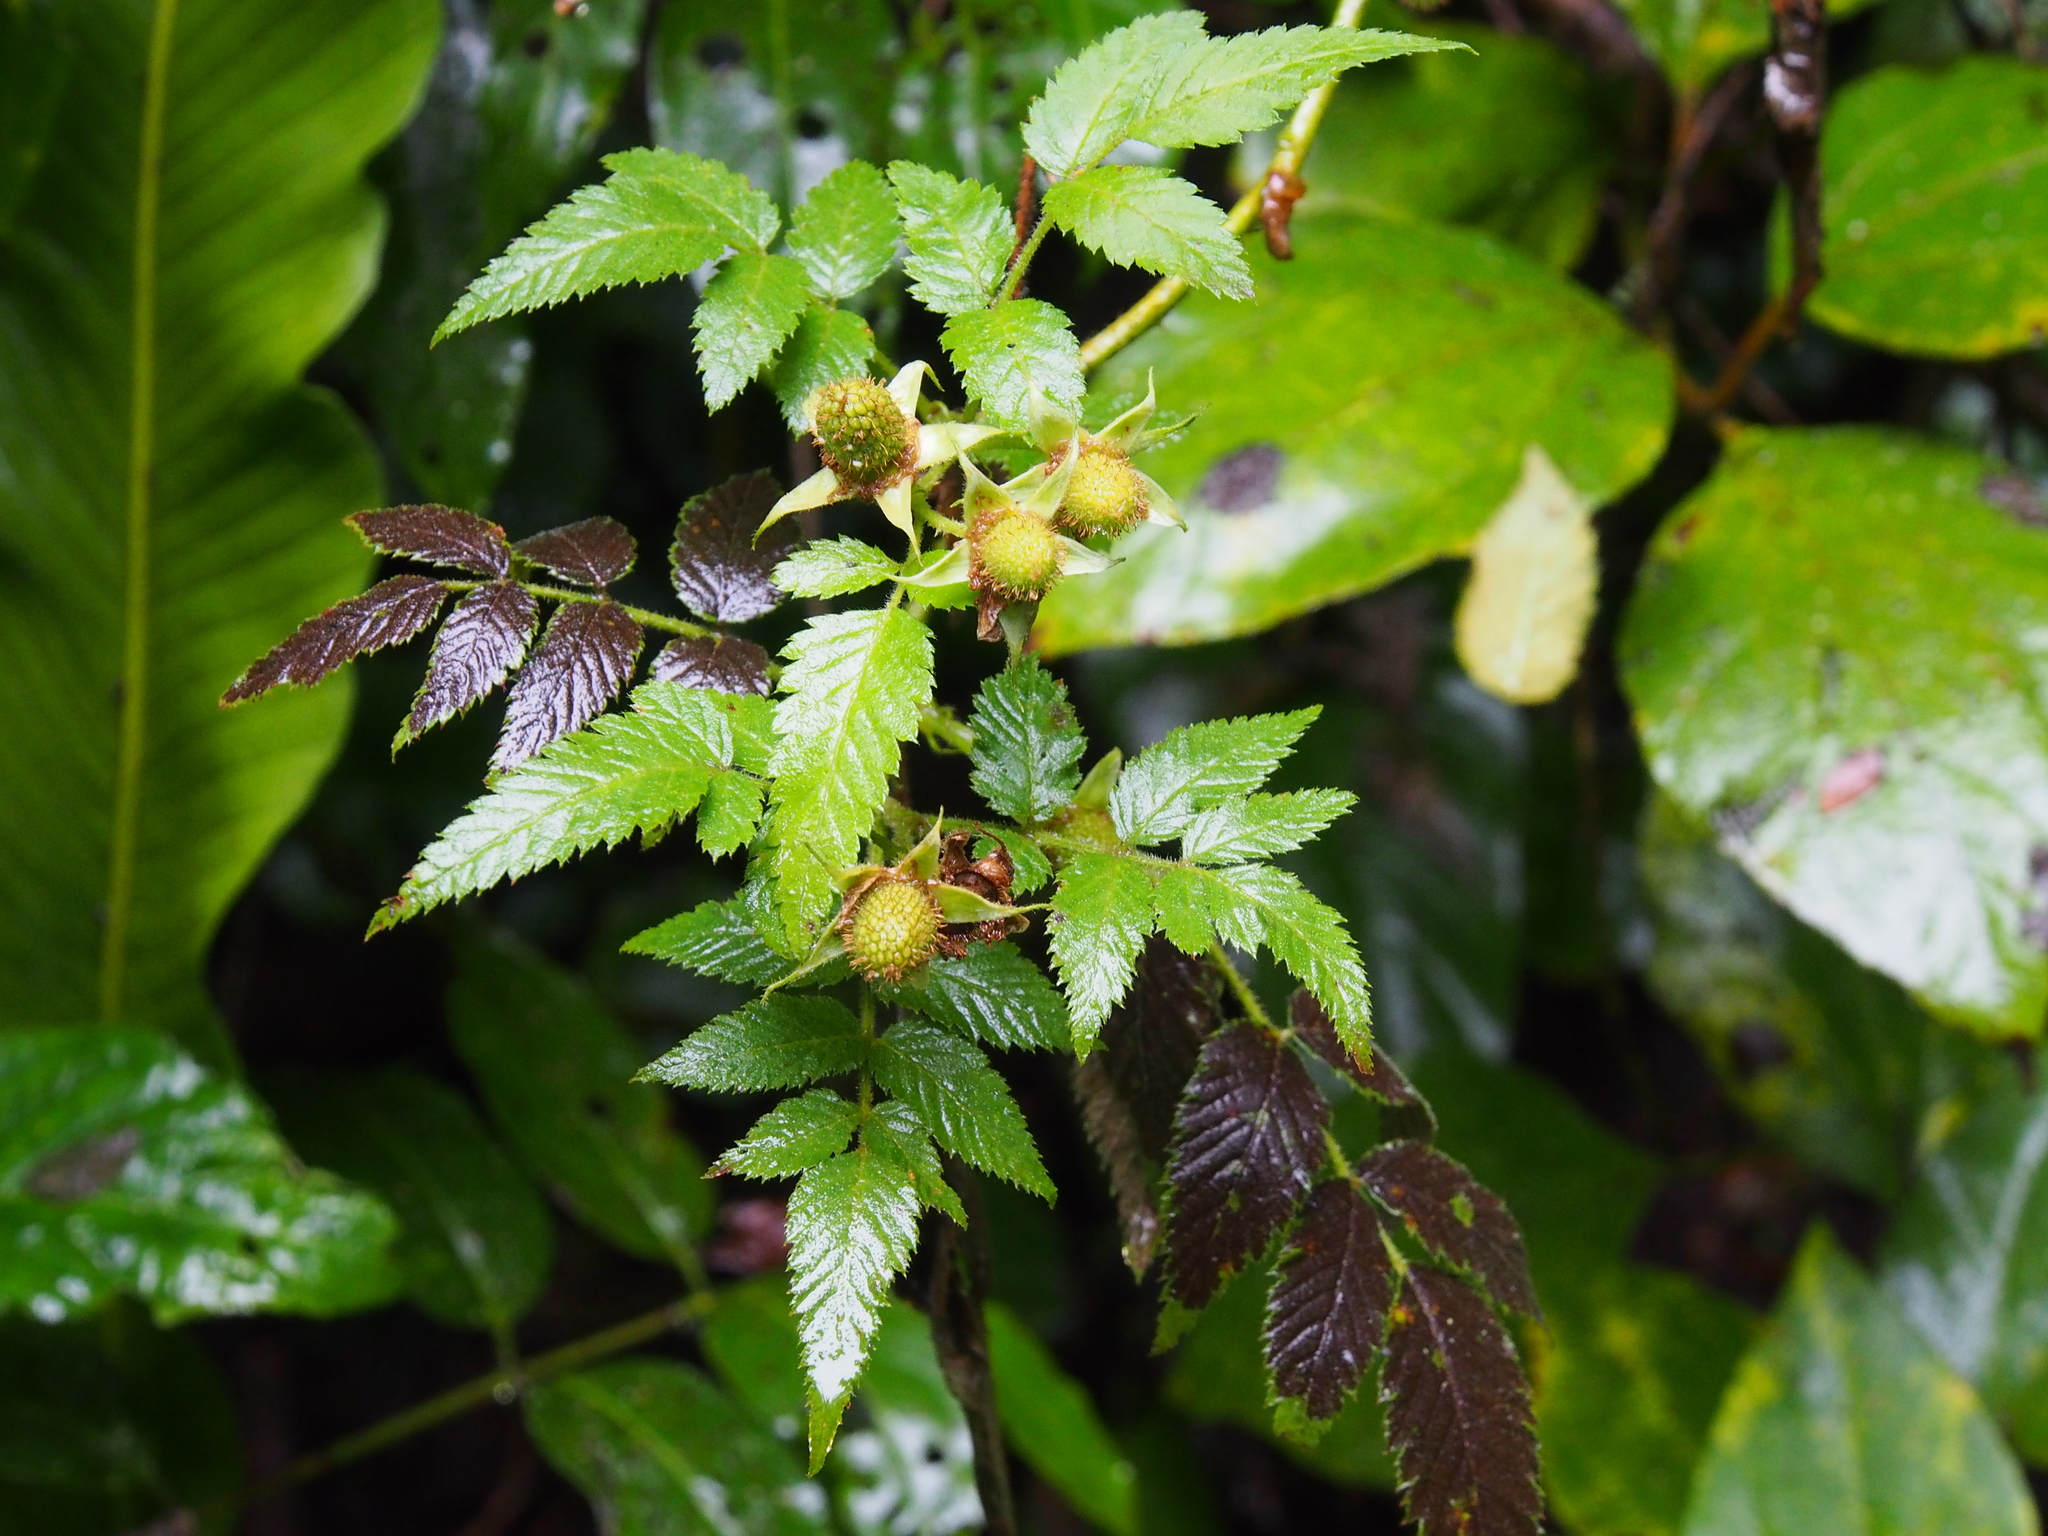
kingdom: Plantae
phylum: Tracheophyta
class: Magnoliopsida
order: Rosales
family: Rosaceae
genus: Rubus
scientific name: Rubus rosifolius
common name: Roseleaf raspberry
